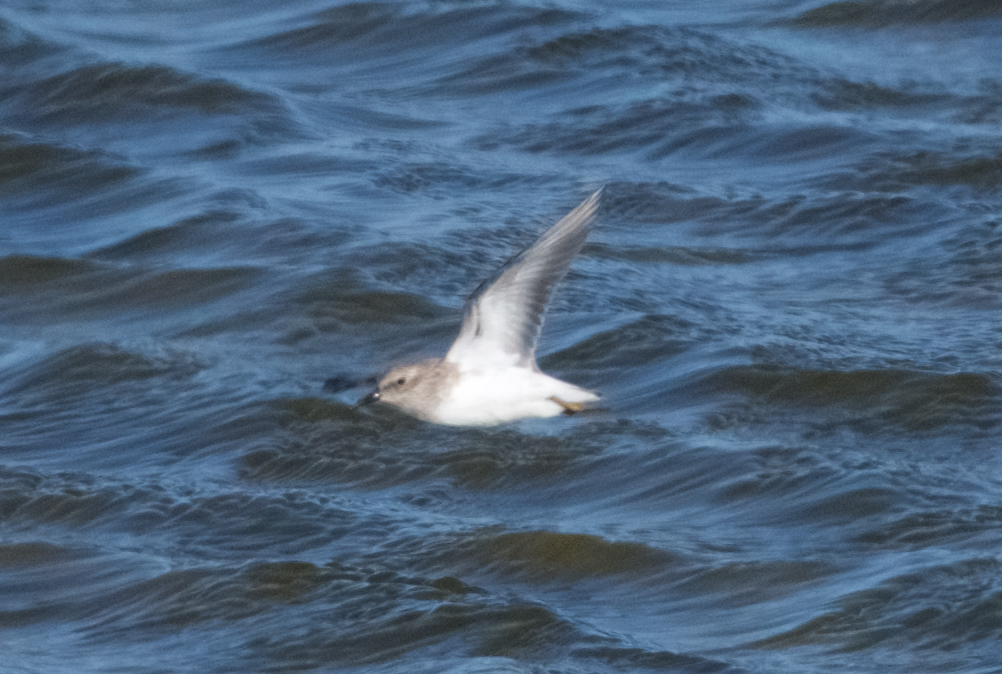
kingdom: Animalia
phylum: Chordata
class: Aves
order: Charadriiformes
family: Scolopacidae
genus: Calidris
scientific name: Calidris minutilla
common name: Least sandpiper
